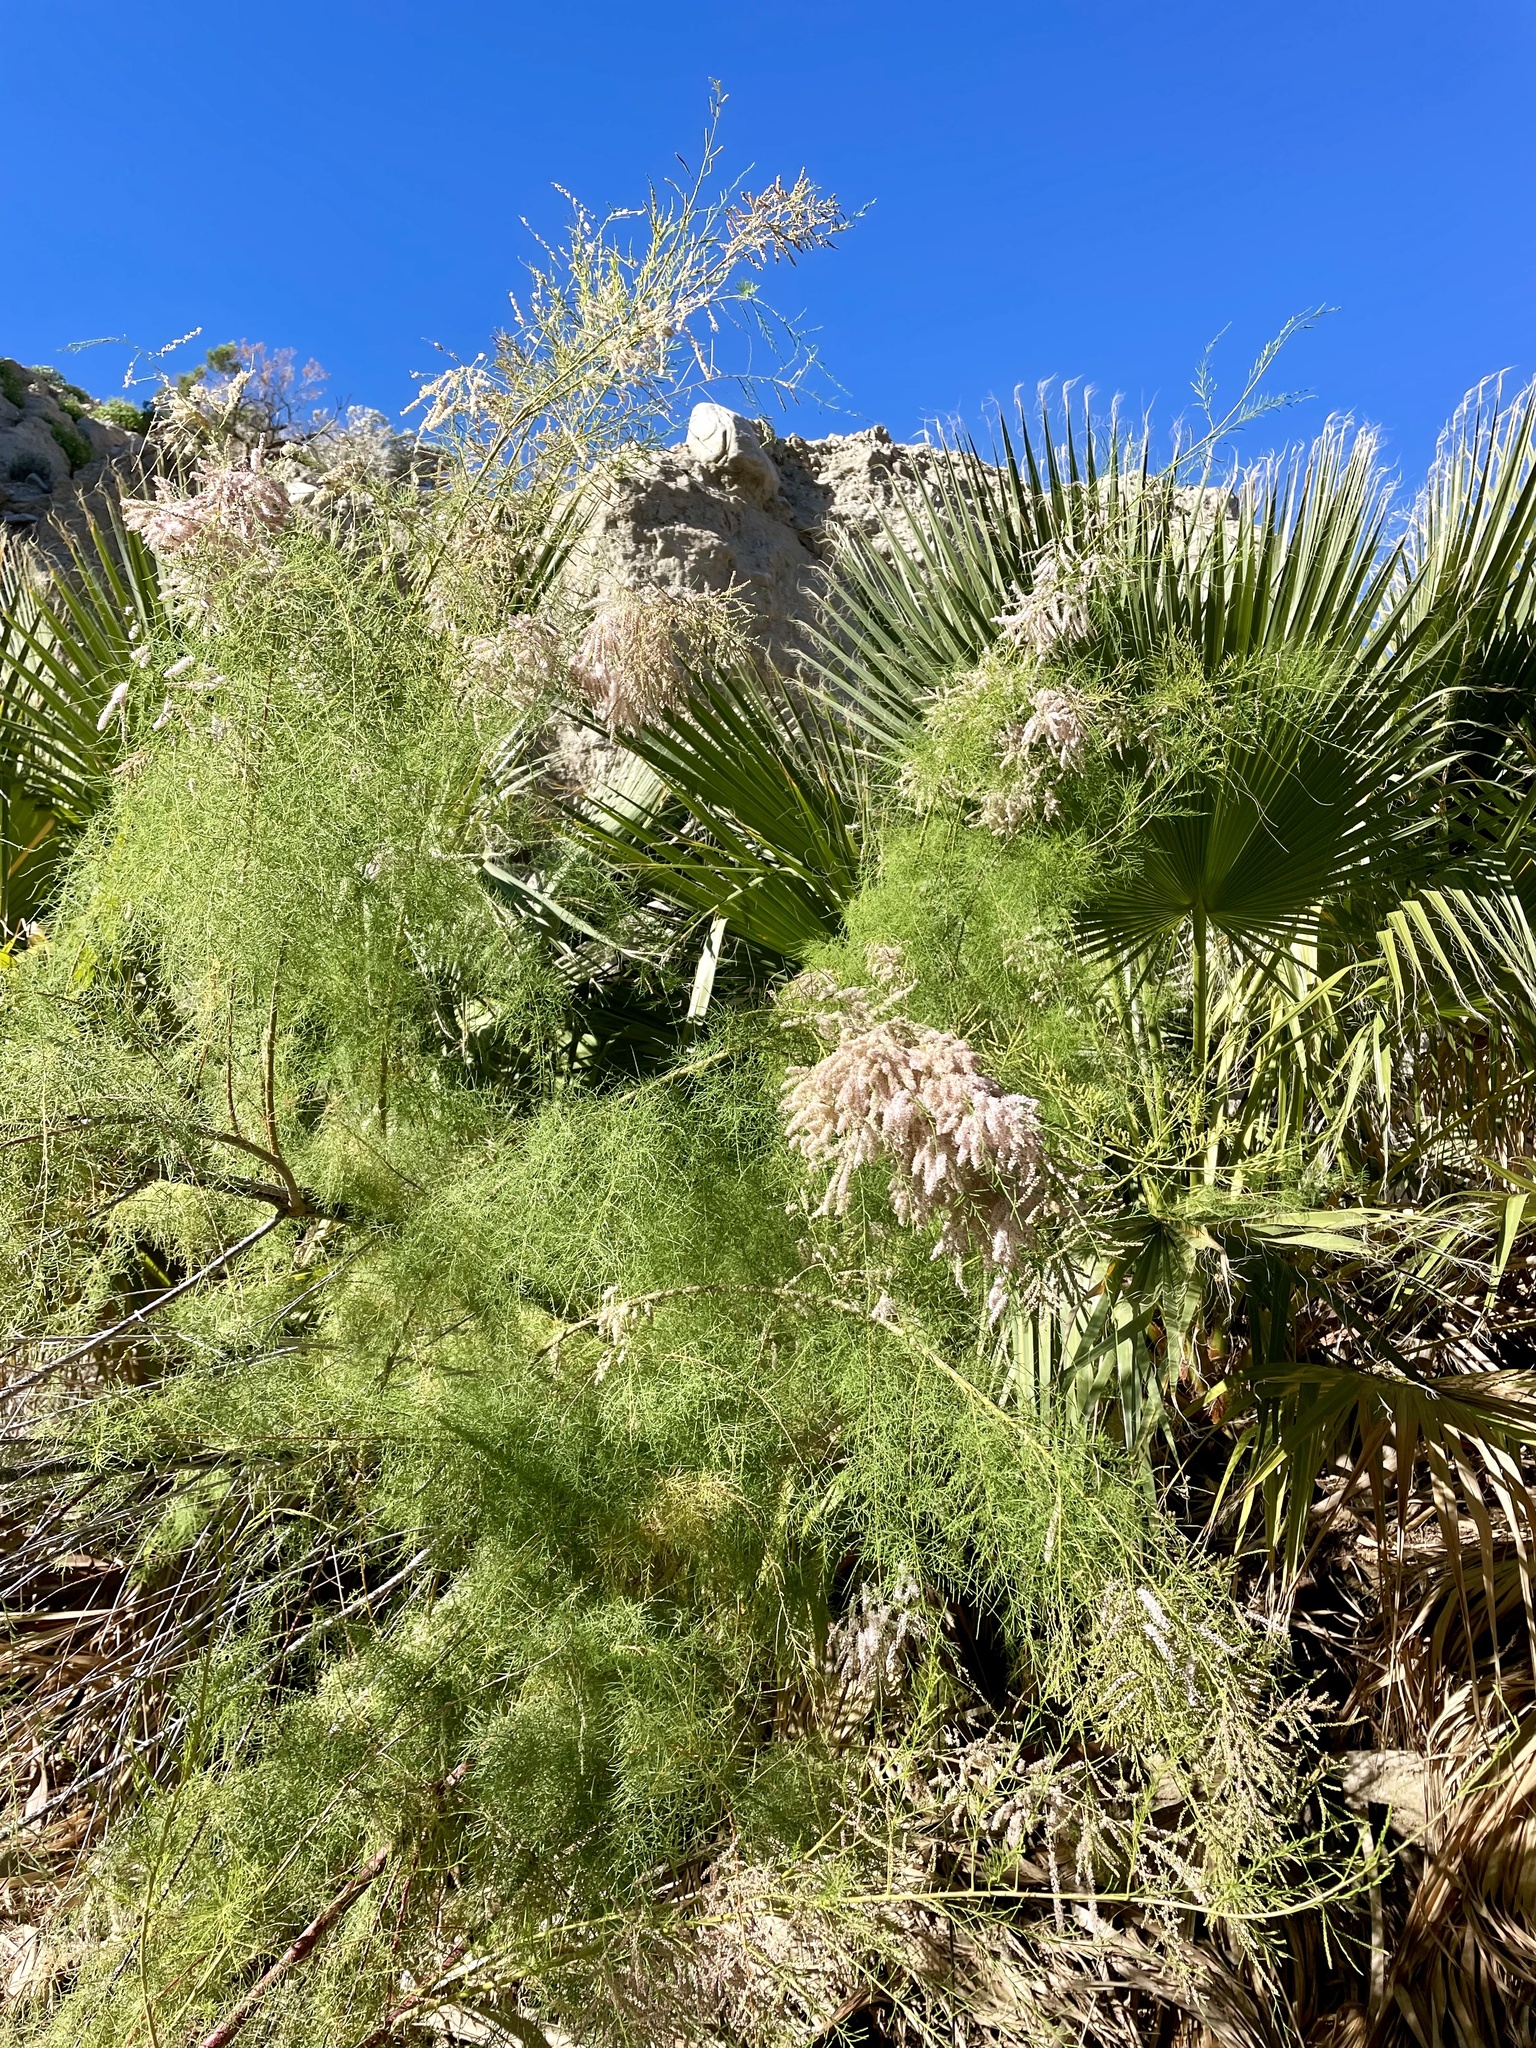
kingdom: Plantae
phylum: Tracheophyta
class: Magnoliopsida
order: Caryophyllales
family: Tamaricaceae
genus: Tamarix
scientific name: Tamarix ramosissima
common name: Pink tamarisk
